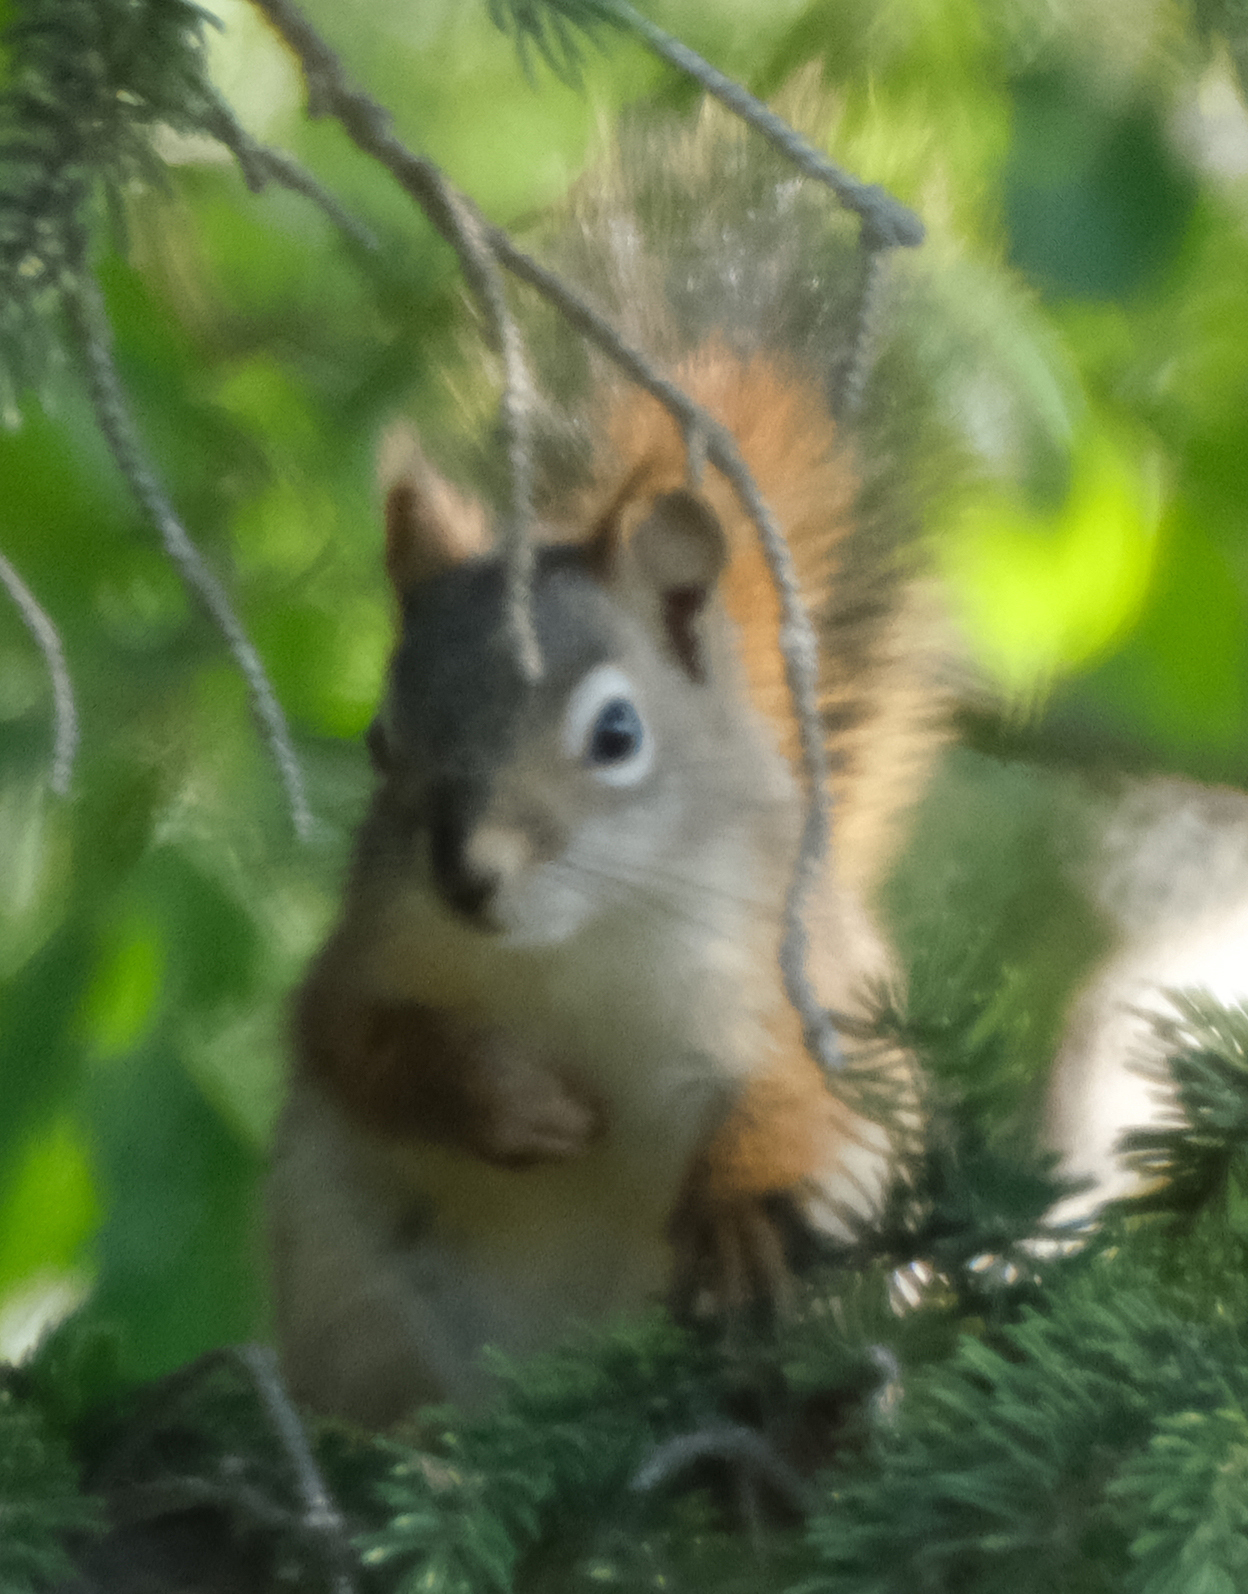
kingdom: Animalia
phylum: Chordata
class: Mammalia
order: Rodentia
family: Sciuridae
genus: Tamiasciurus
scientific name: Tamiasciurus hudsonicus
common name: Red squirrel
